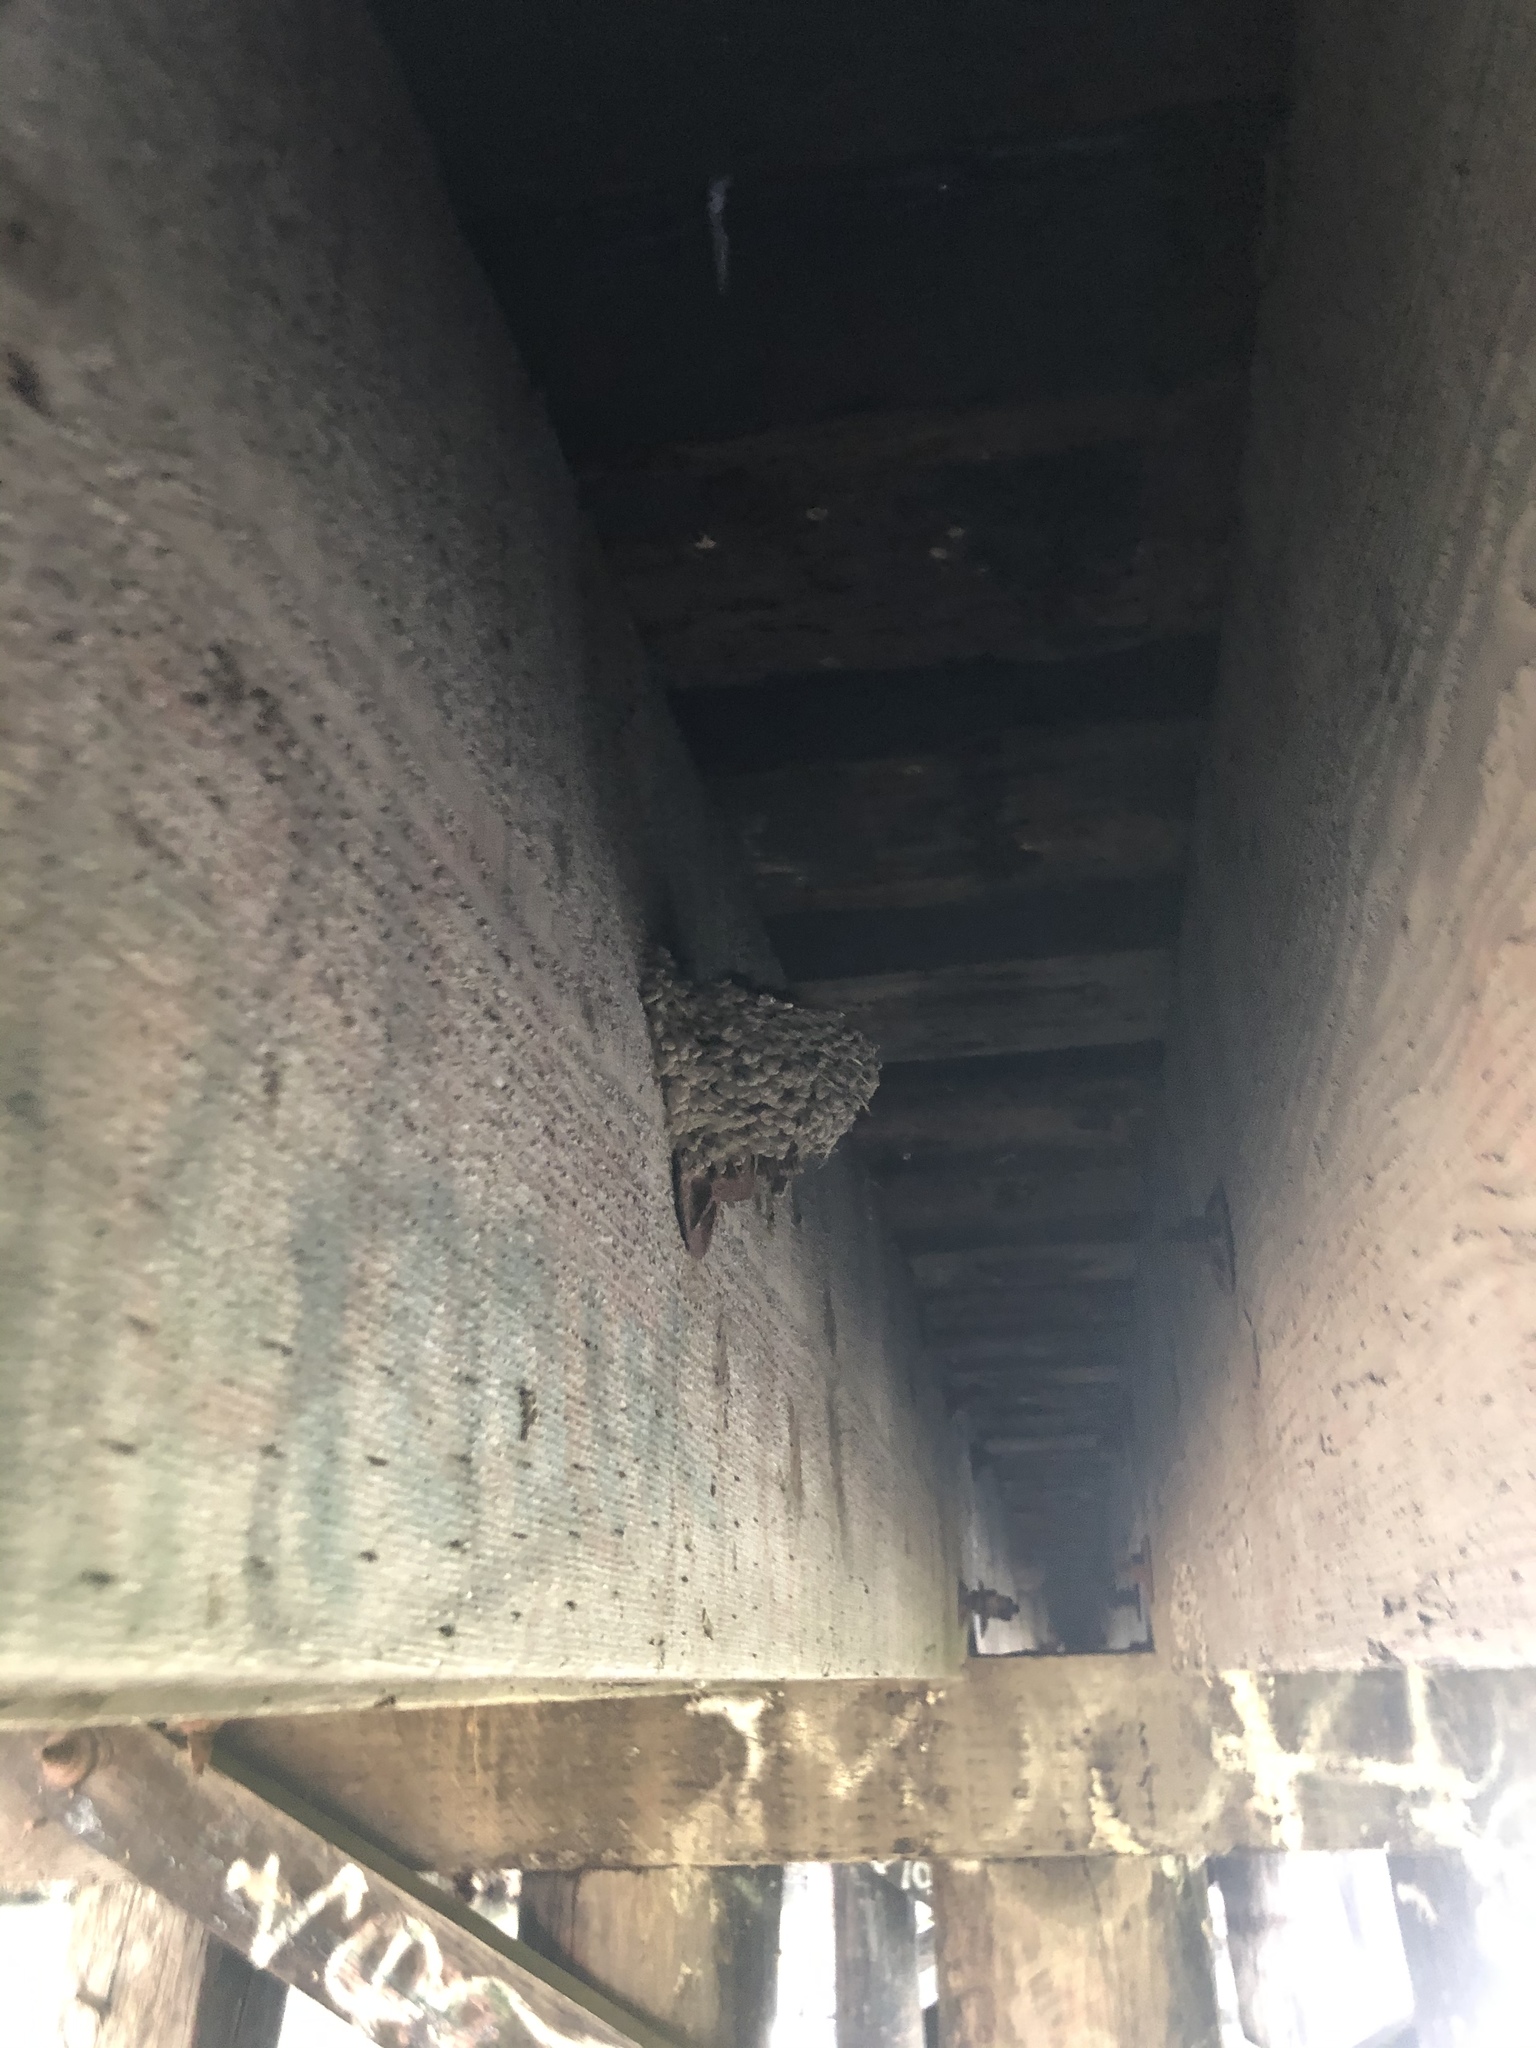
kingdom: Animalia
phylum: Chordata
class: Aves
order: Passeriformes
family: Hirundinidae
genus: Hirundo
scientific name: Hirundo rustica
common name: Barn swallow
